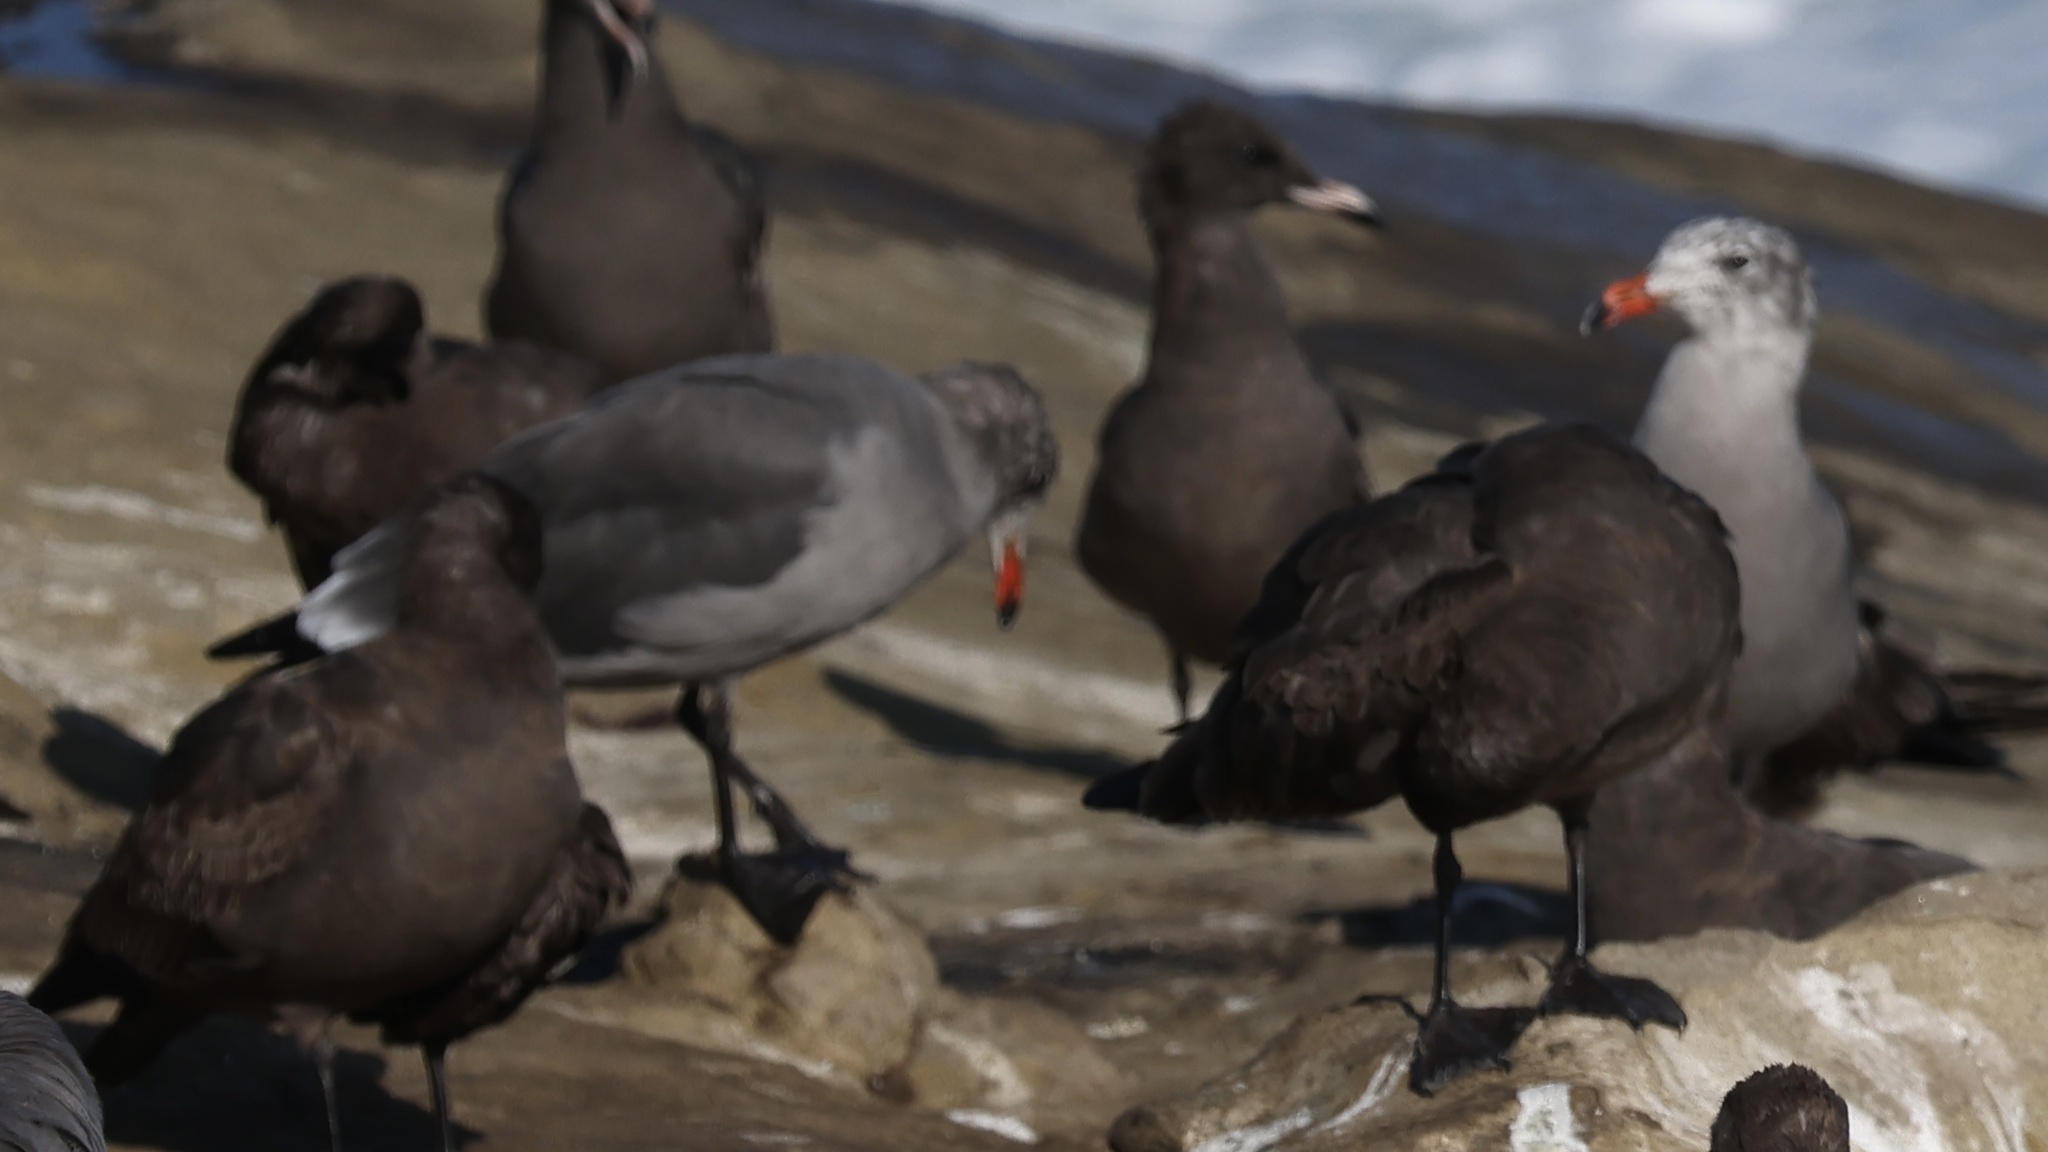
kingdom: Animalia
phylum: Chordata
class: Aves
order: Charadriiformes
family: Laridae
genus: Larus
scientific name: Larus heermanni
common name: Heermann's gull
